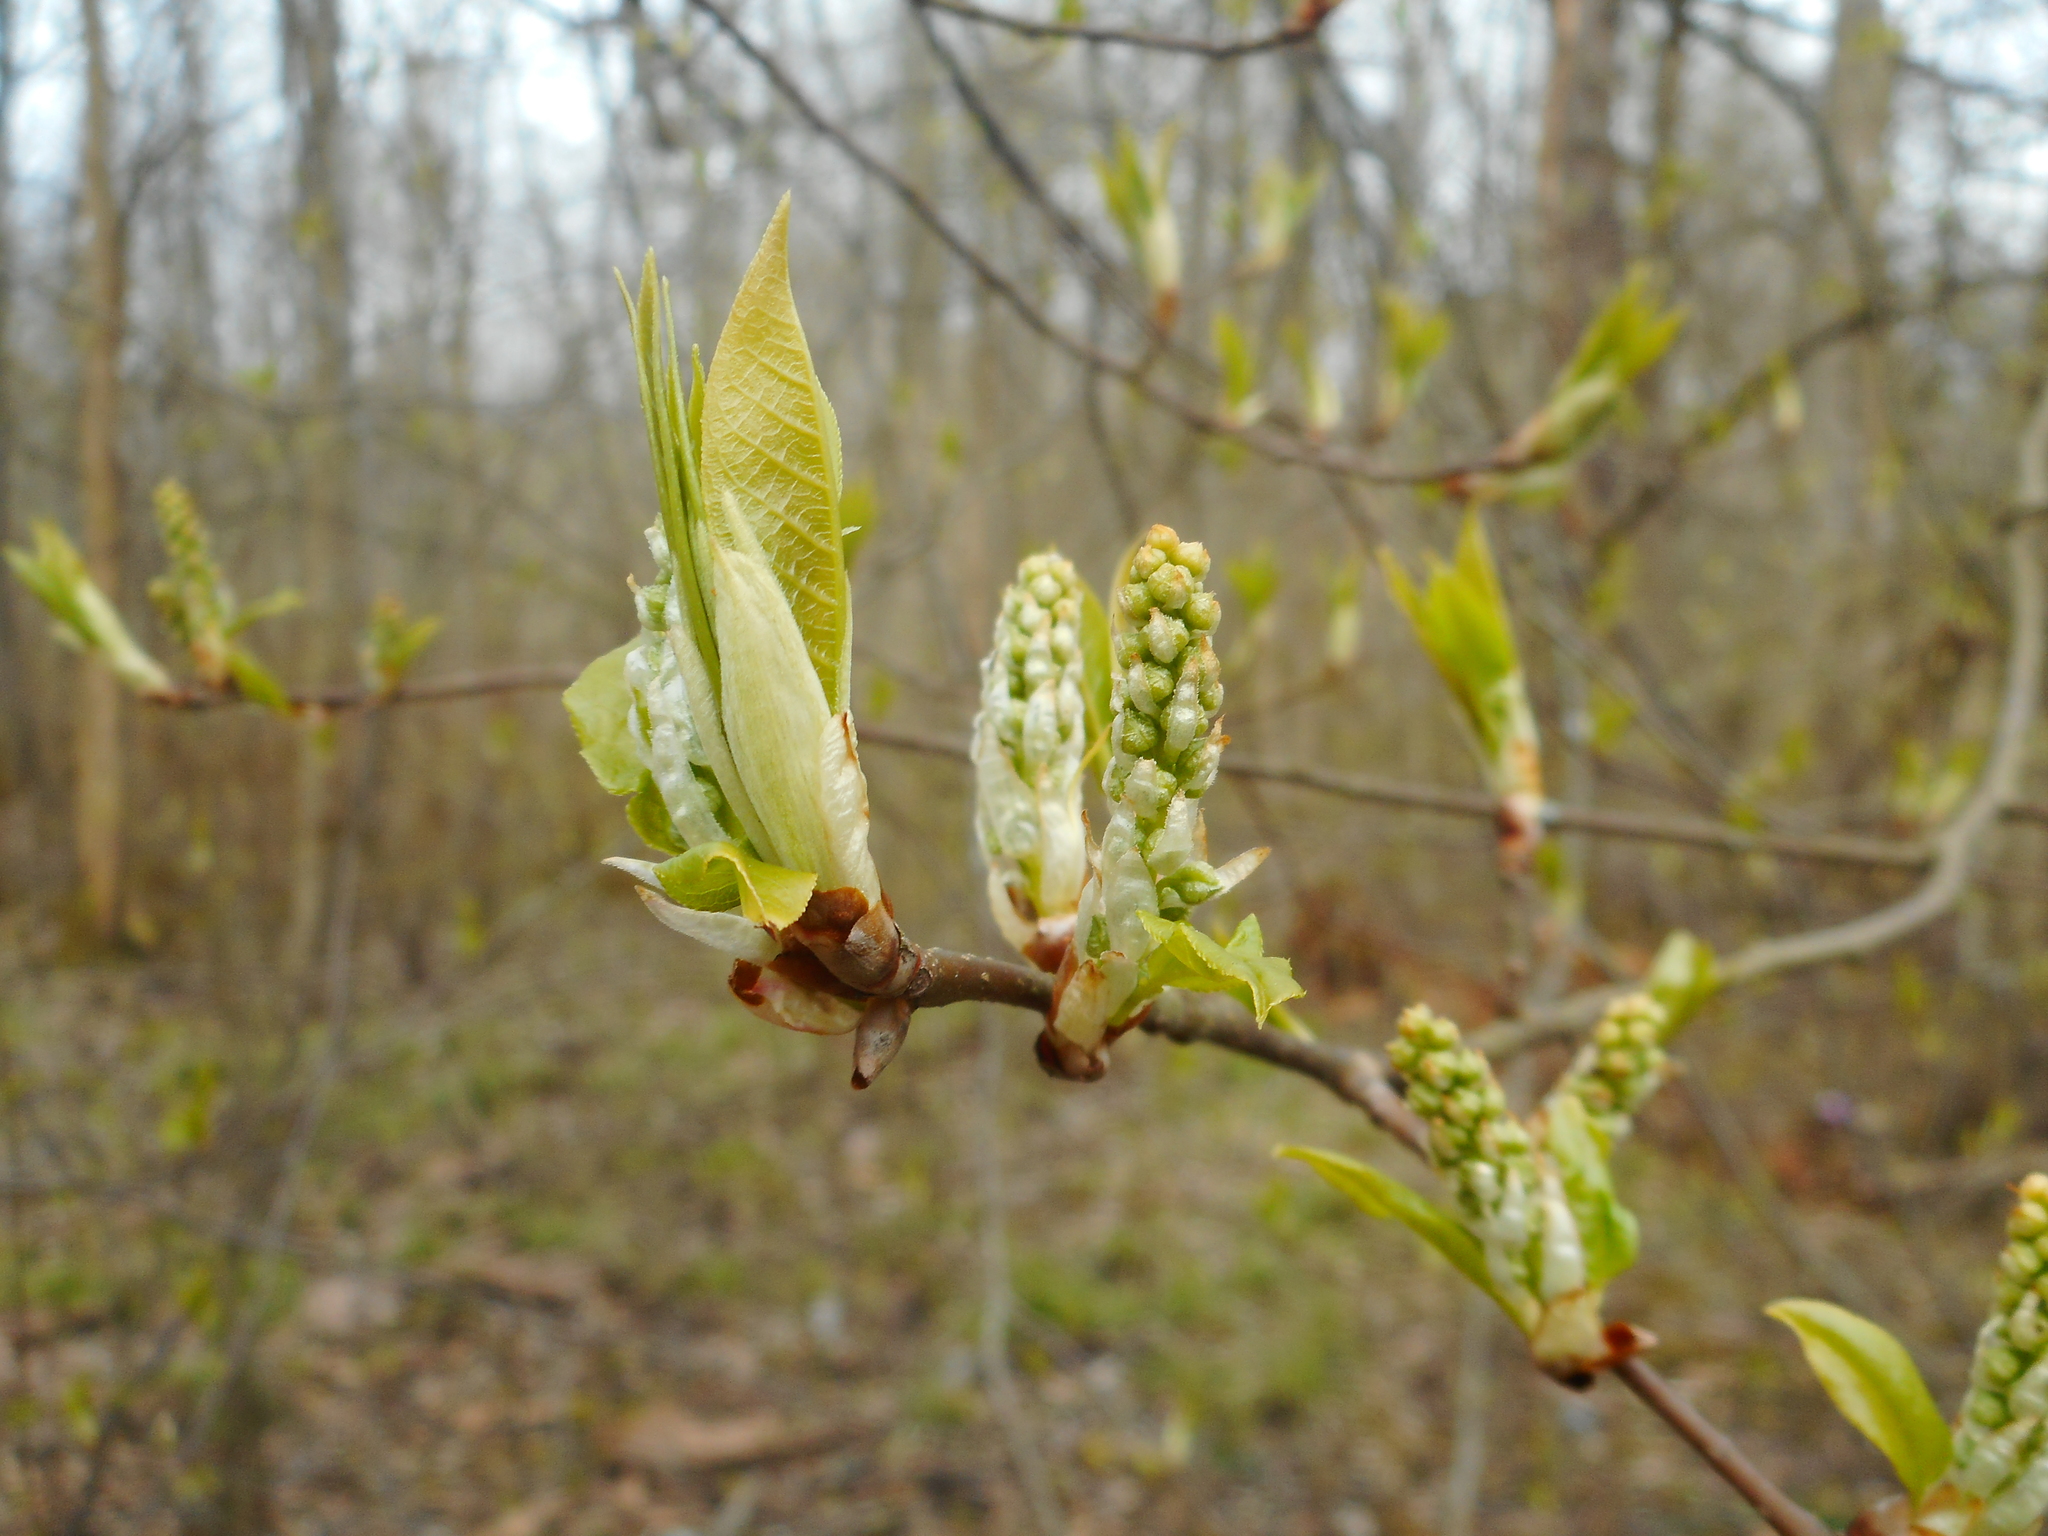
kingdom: Plantae
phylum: Tracheophyta
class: Magnoliopsida
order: Rosales
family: Rosaceae
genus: Prunus
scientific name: Prunus padus
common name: Bird cherry
